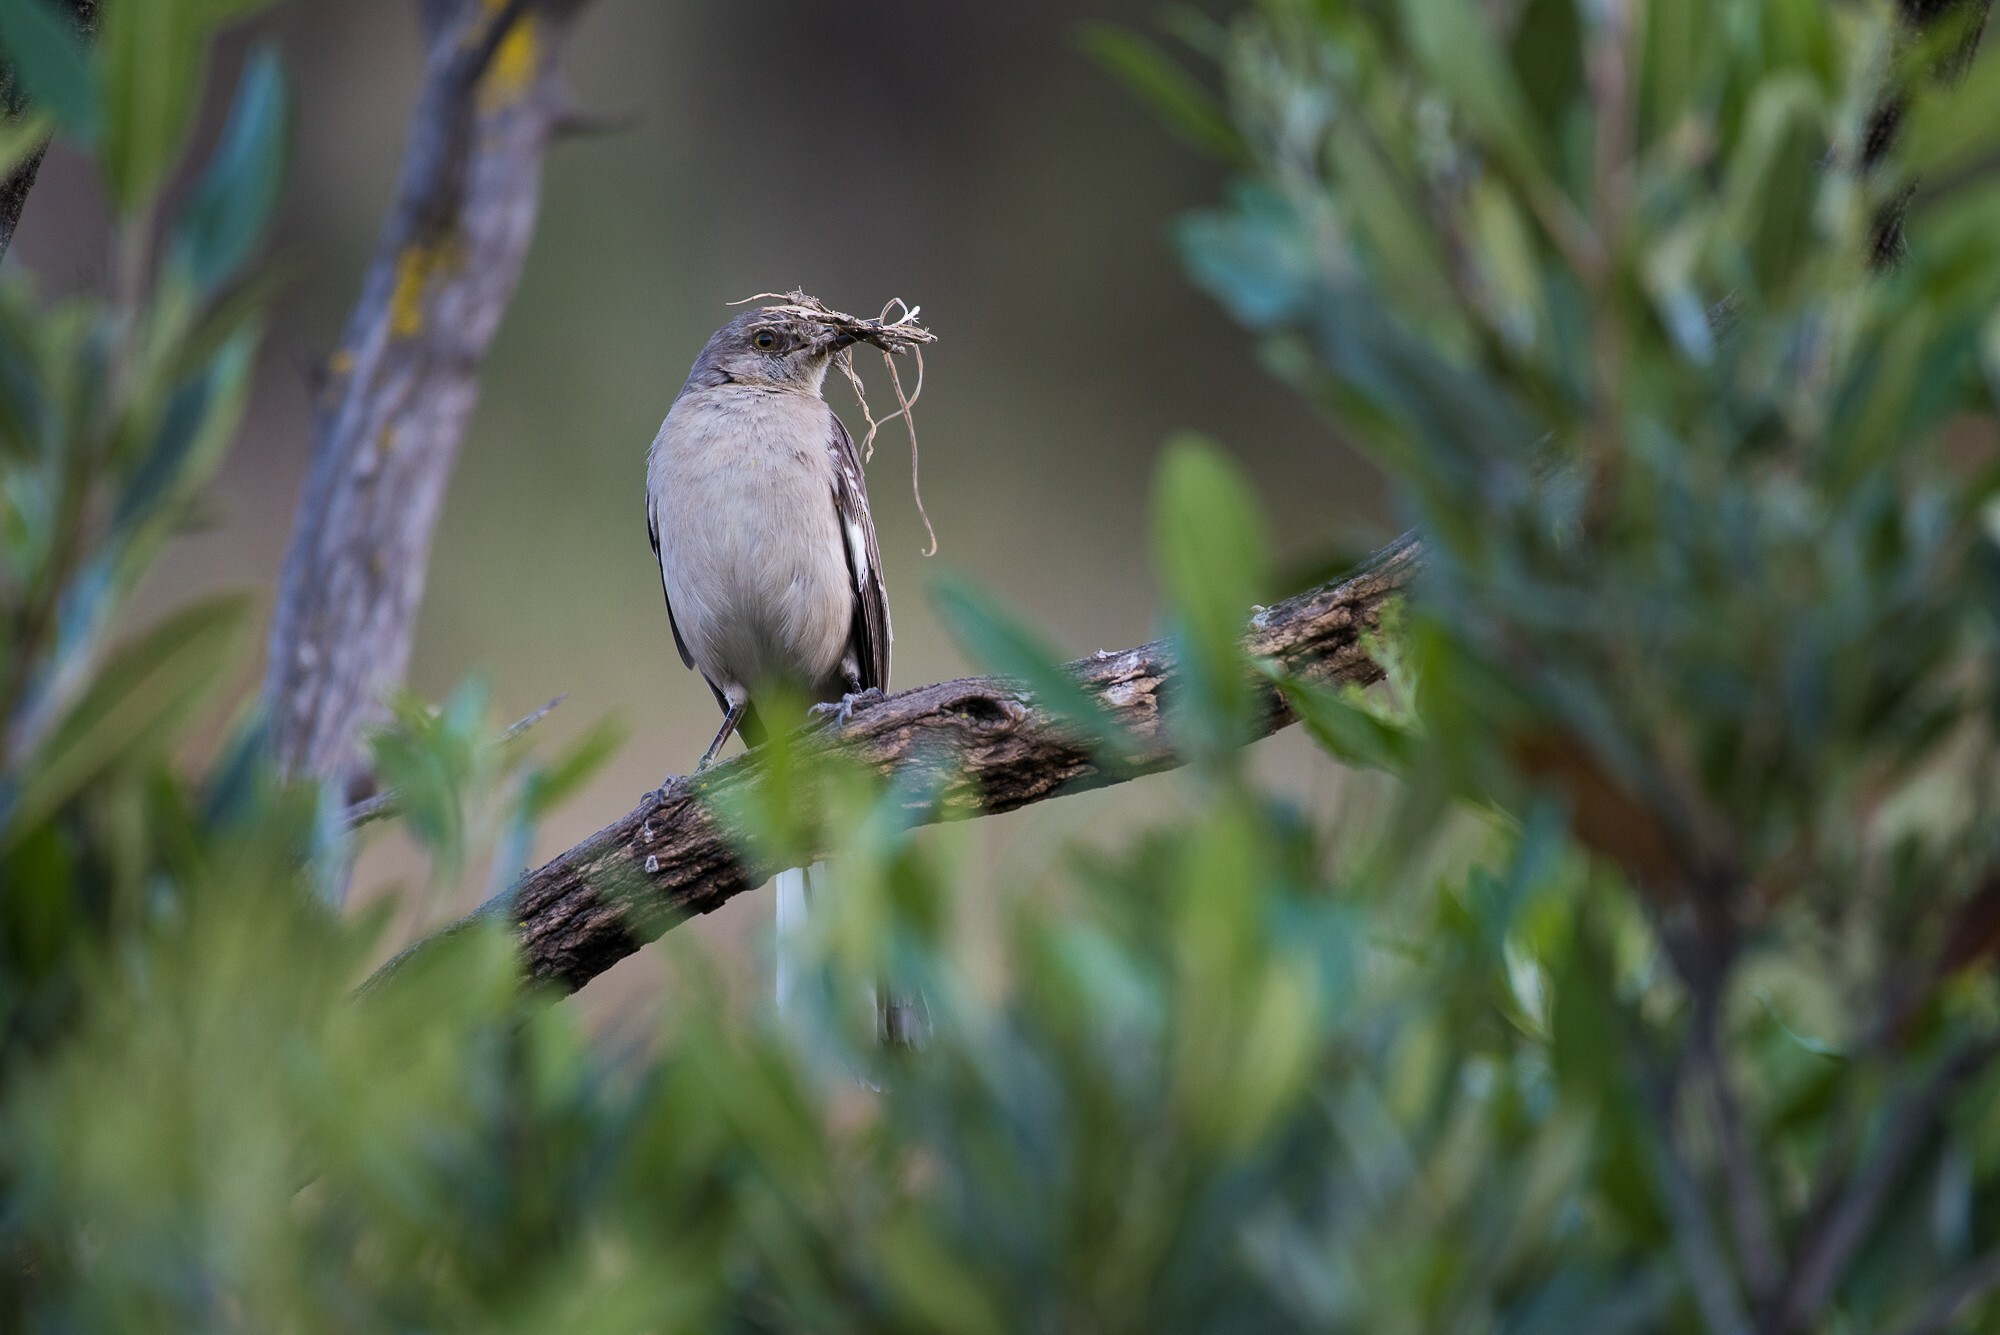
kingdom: Animalia
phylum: Chordata
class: Aves
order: Passeriformes
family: Mimidae
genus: Mimus
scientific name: Mimus polyglottos
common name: Northern mockingbird
